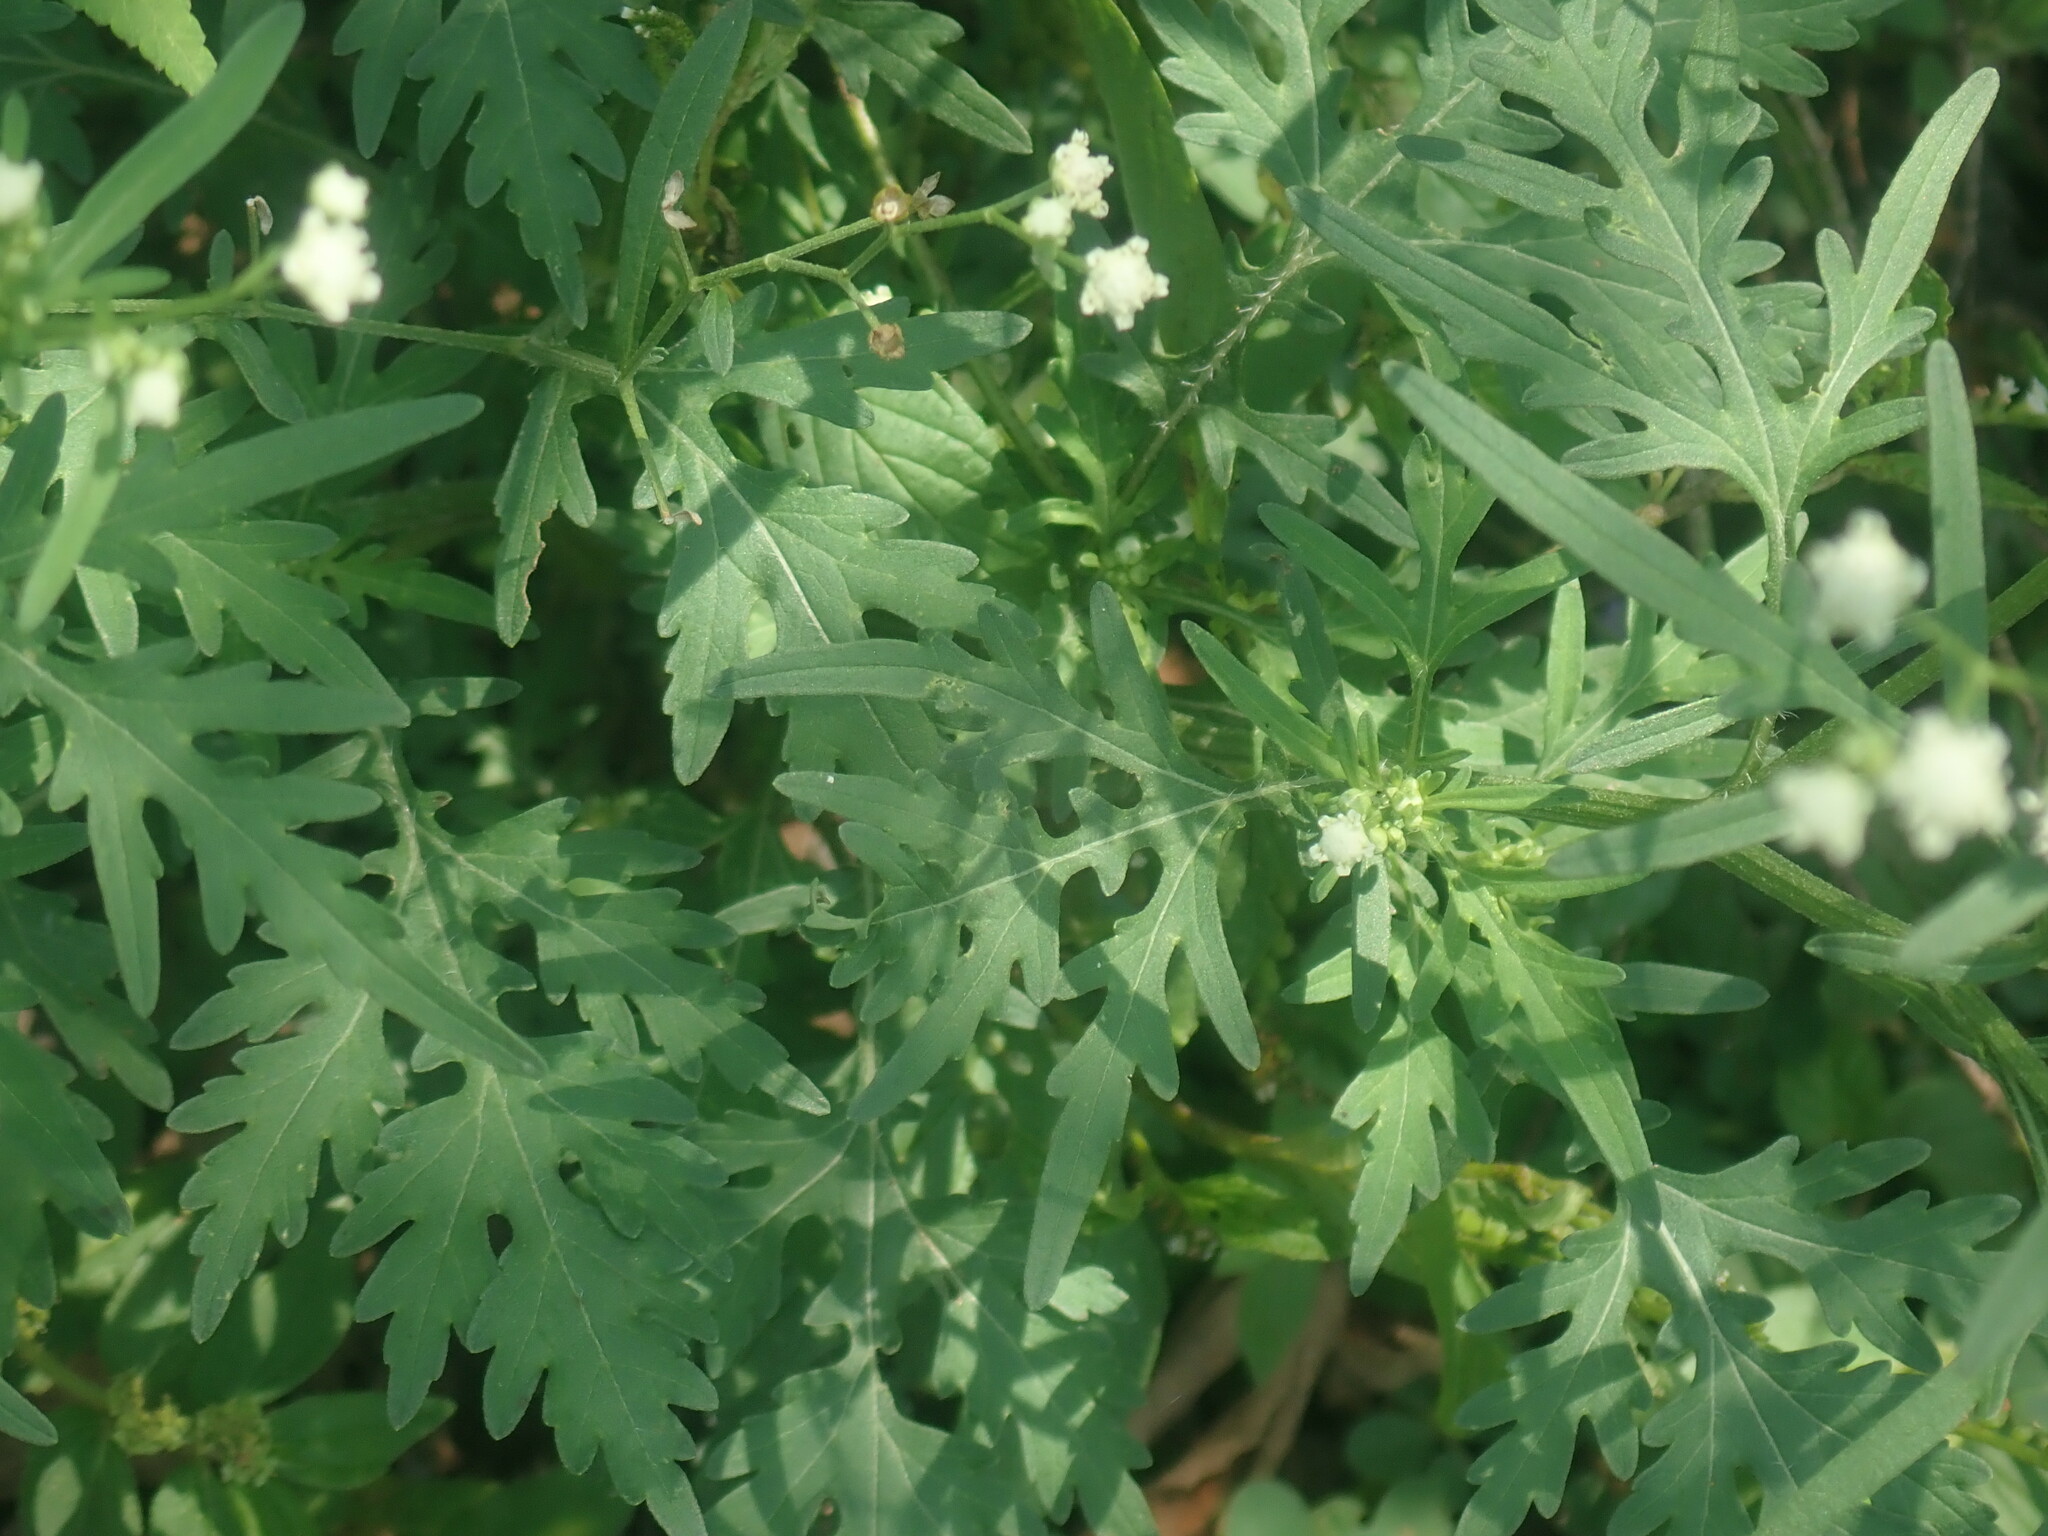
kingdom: Plantae
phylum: Tracheophyta
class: Magnoliopsida
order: Asterales
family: Asteraceae
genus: Parthenium
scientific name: Parthenium hysterophorus
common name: Santa maria feverfew
